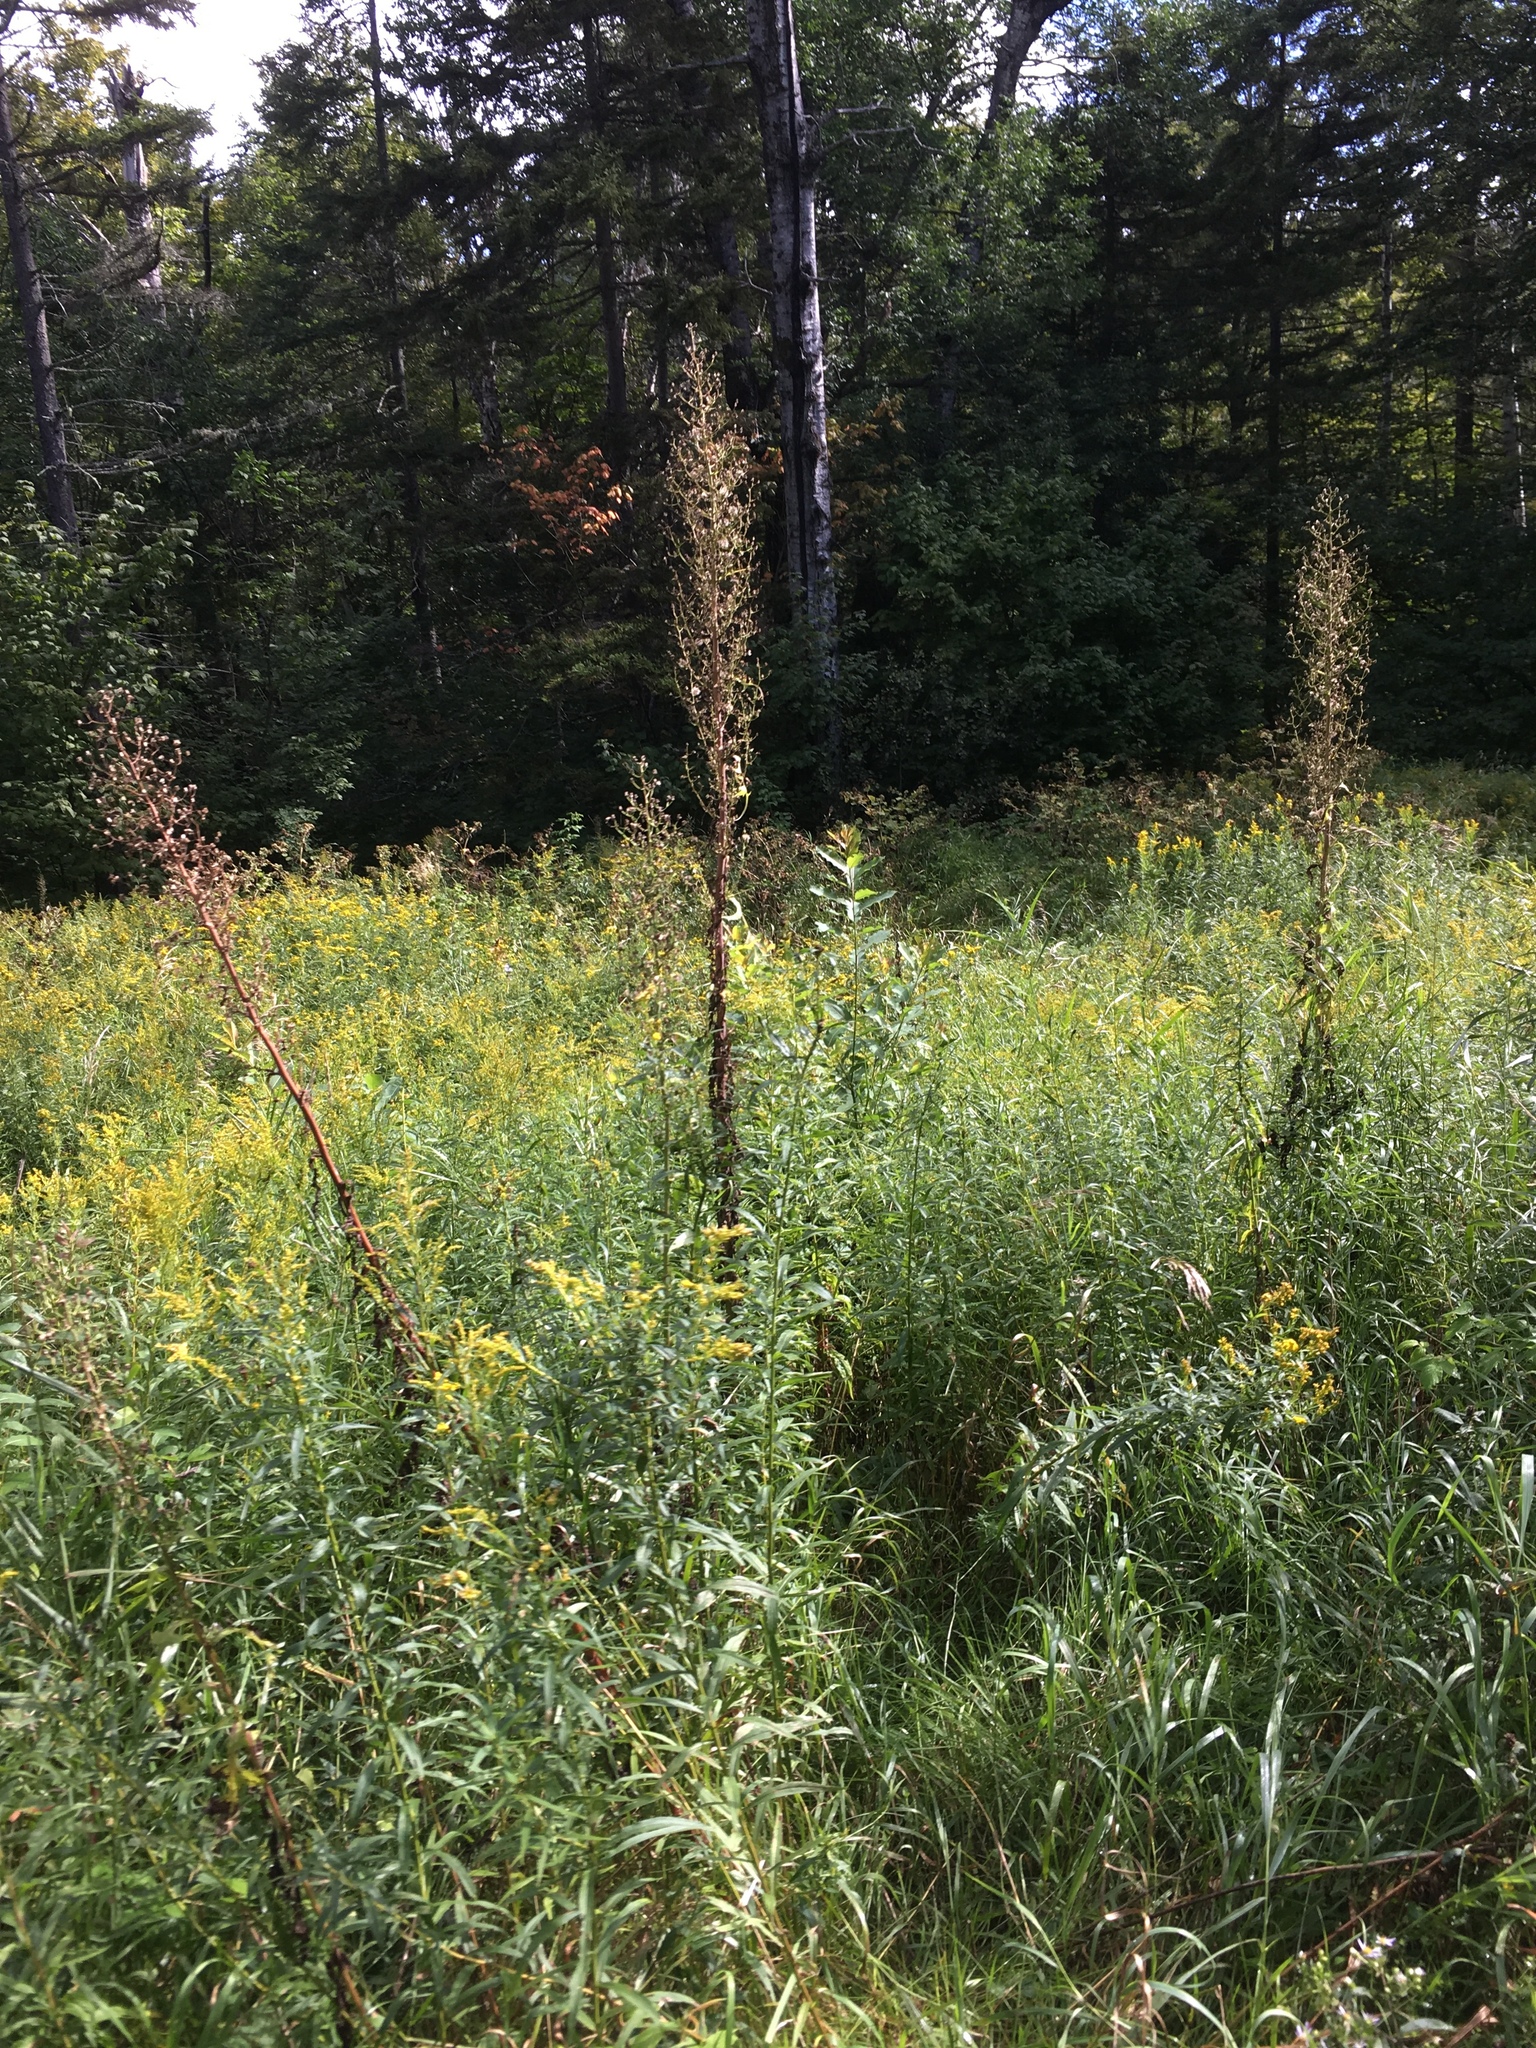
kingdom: Plantae
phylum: Tracheophyta
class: Magnoliopsida
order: Asterales
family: Asteraceae
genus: Lactuca
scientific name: Lactuca biennis
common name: Blue wood lettuce
